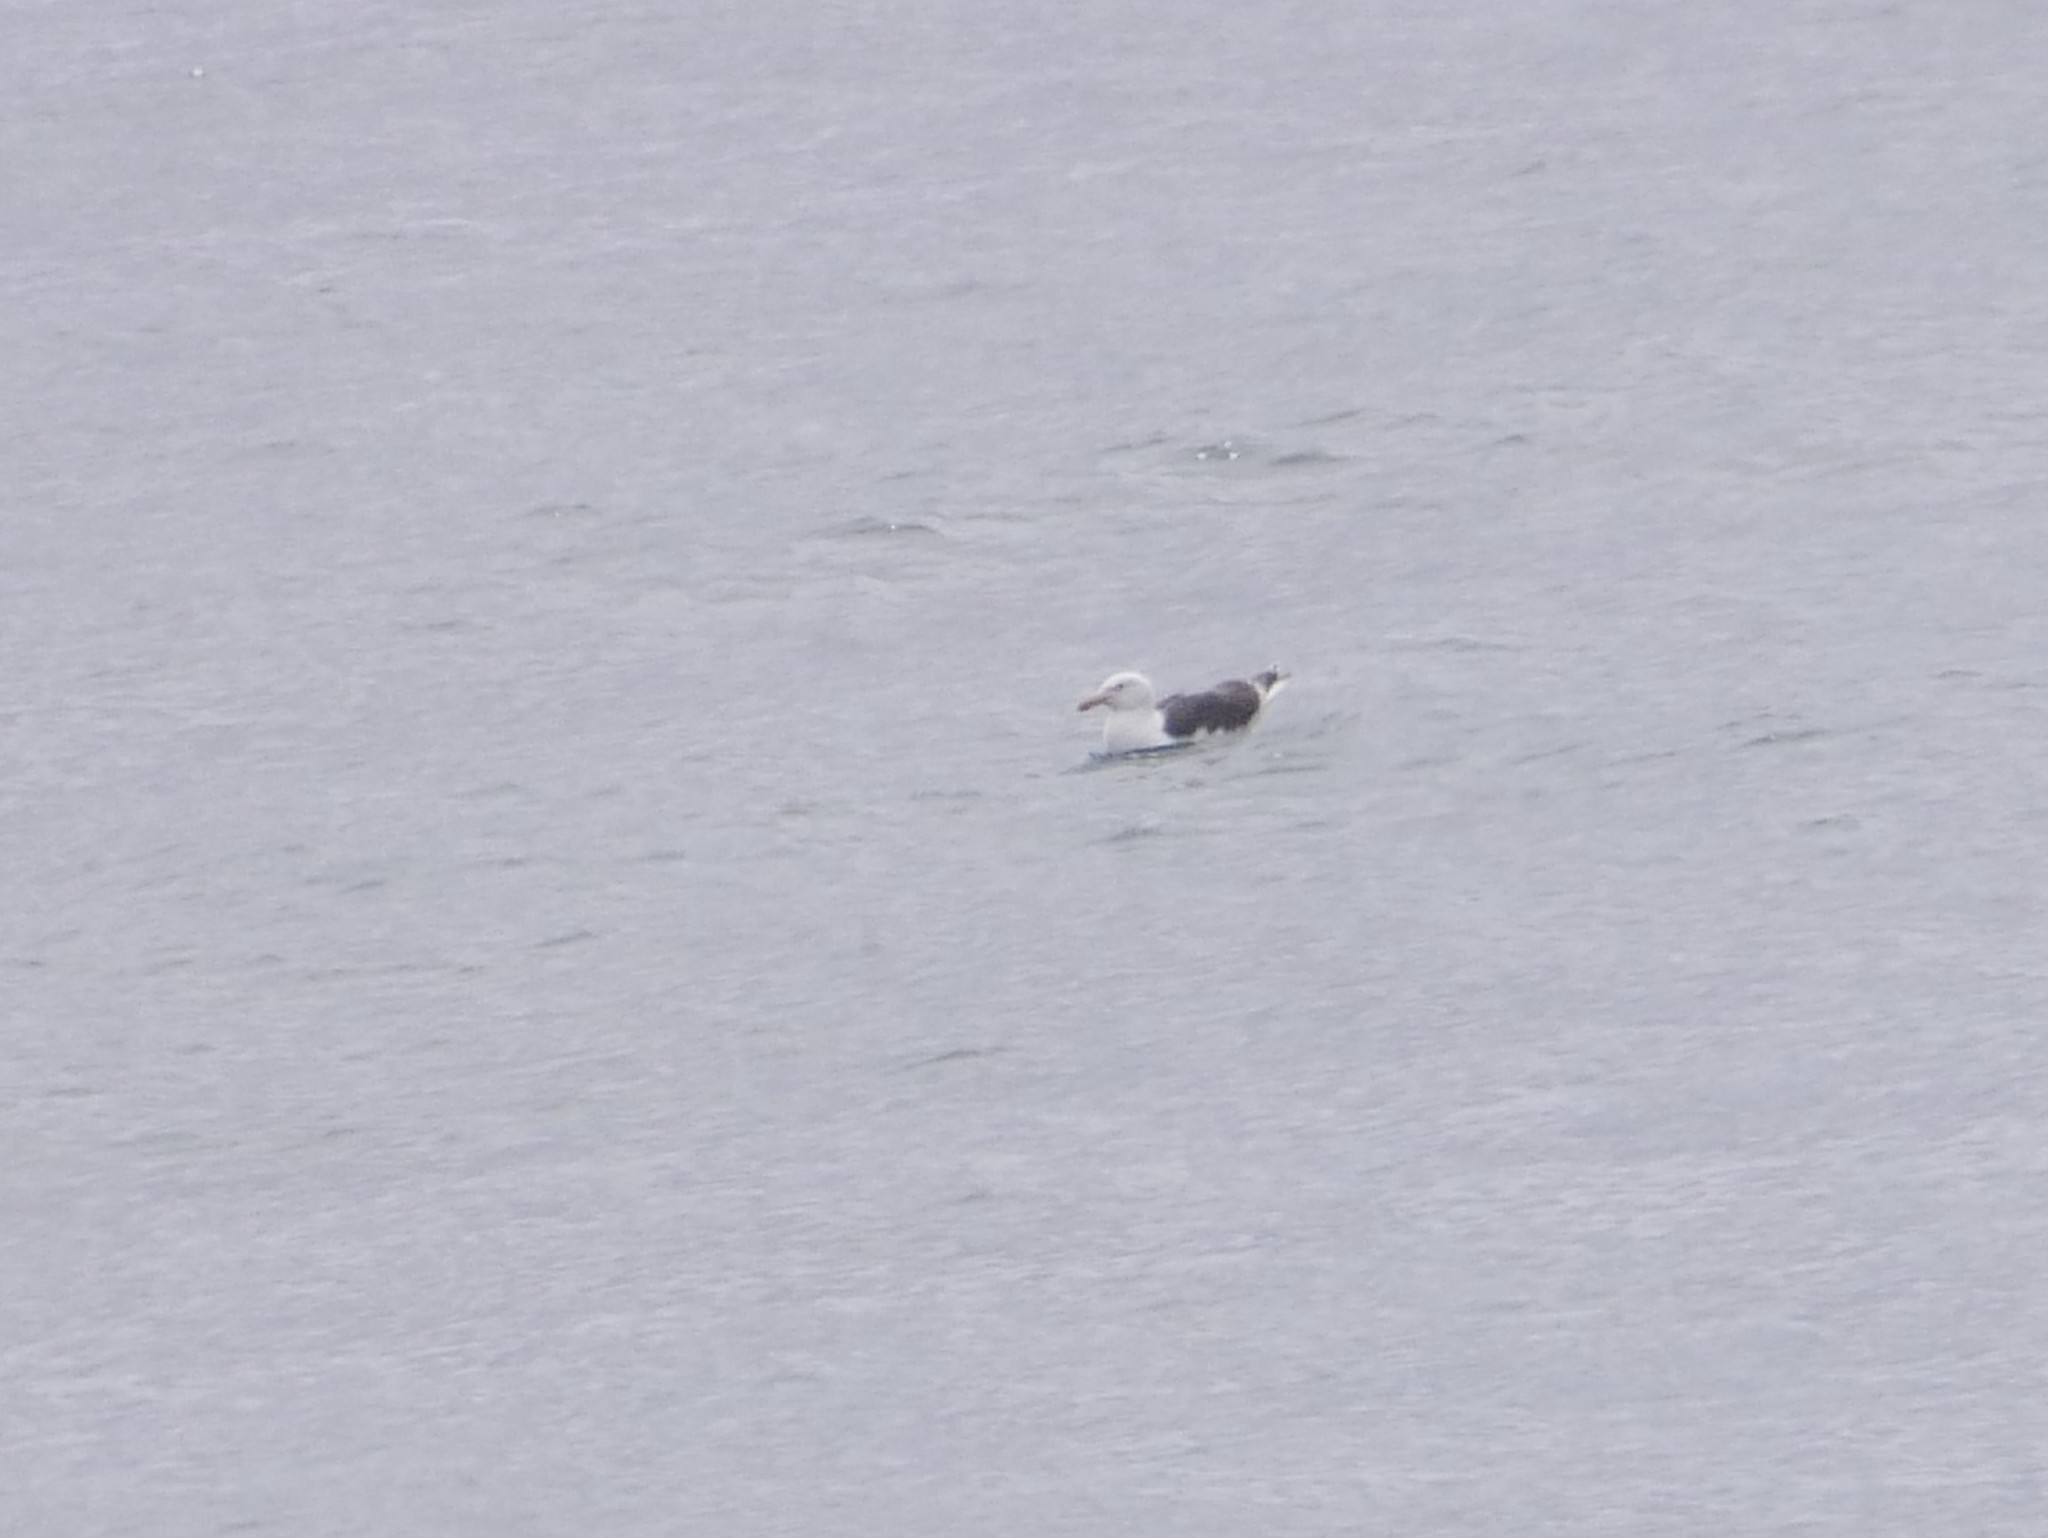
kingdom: Animalia
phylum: Chordata
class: Aves
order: Charadriiformes
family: Laridae
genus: Larus
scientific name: Larus marinus
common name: Great black-backed gull
